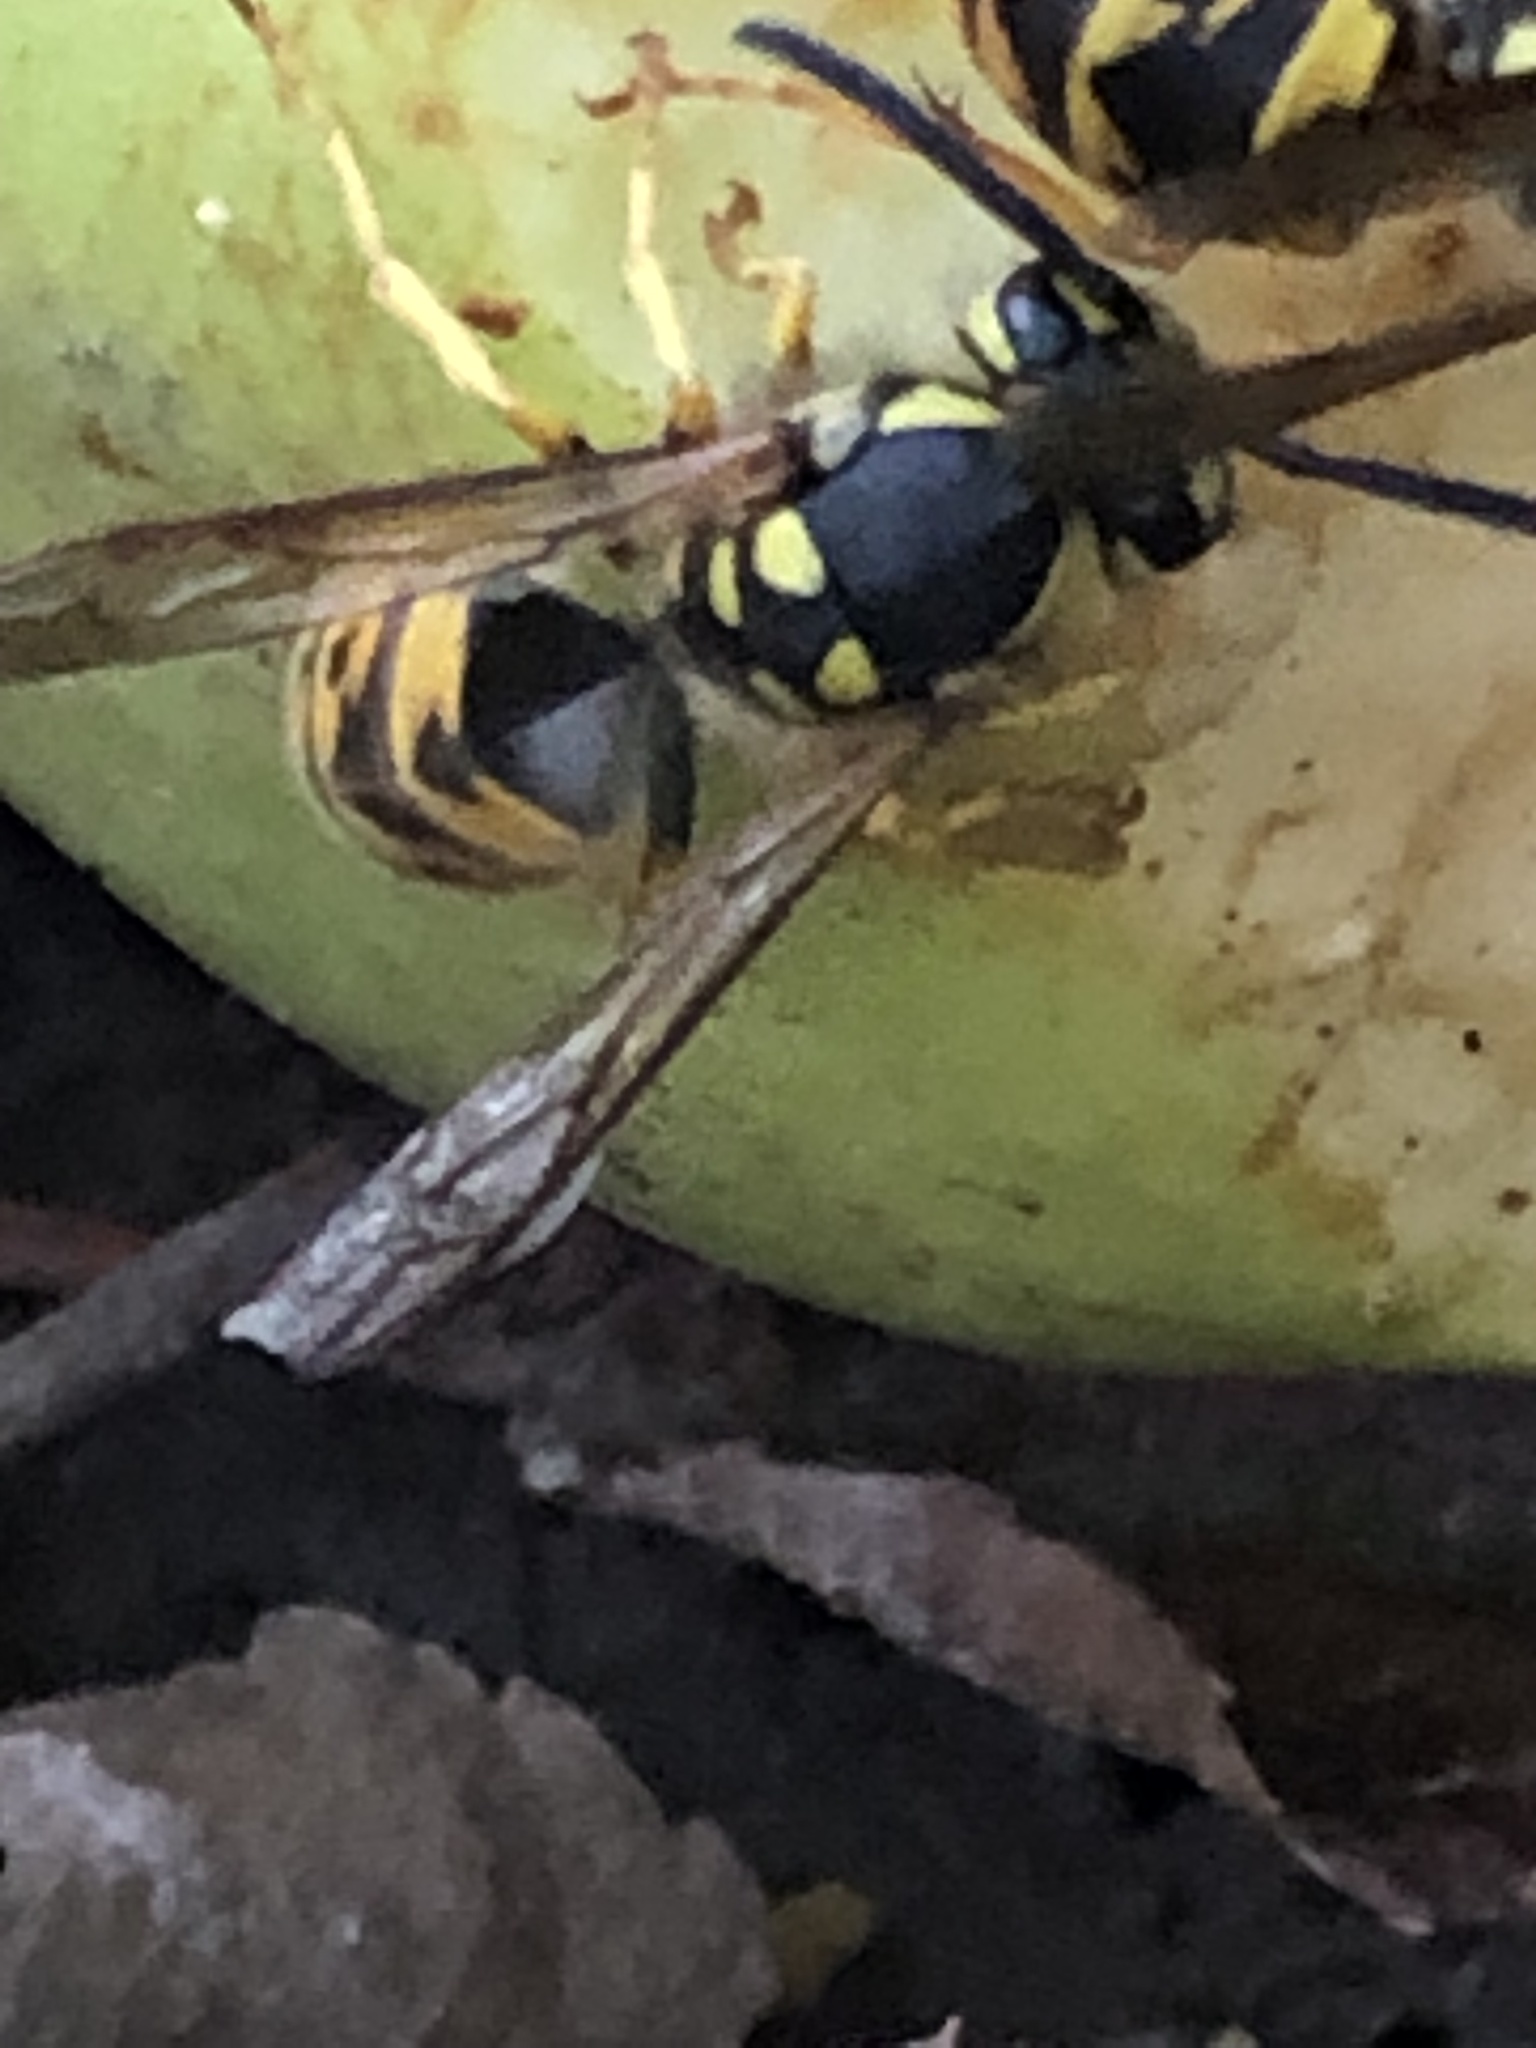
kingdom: Animalia
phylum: Arthropoda
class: Insecta
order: Hymenoptera
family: Vespidae
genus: Vespula
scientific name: Vespula germanica
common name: German wasp
